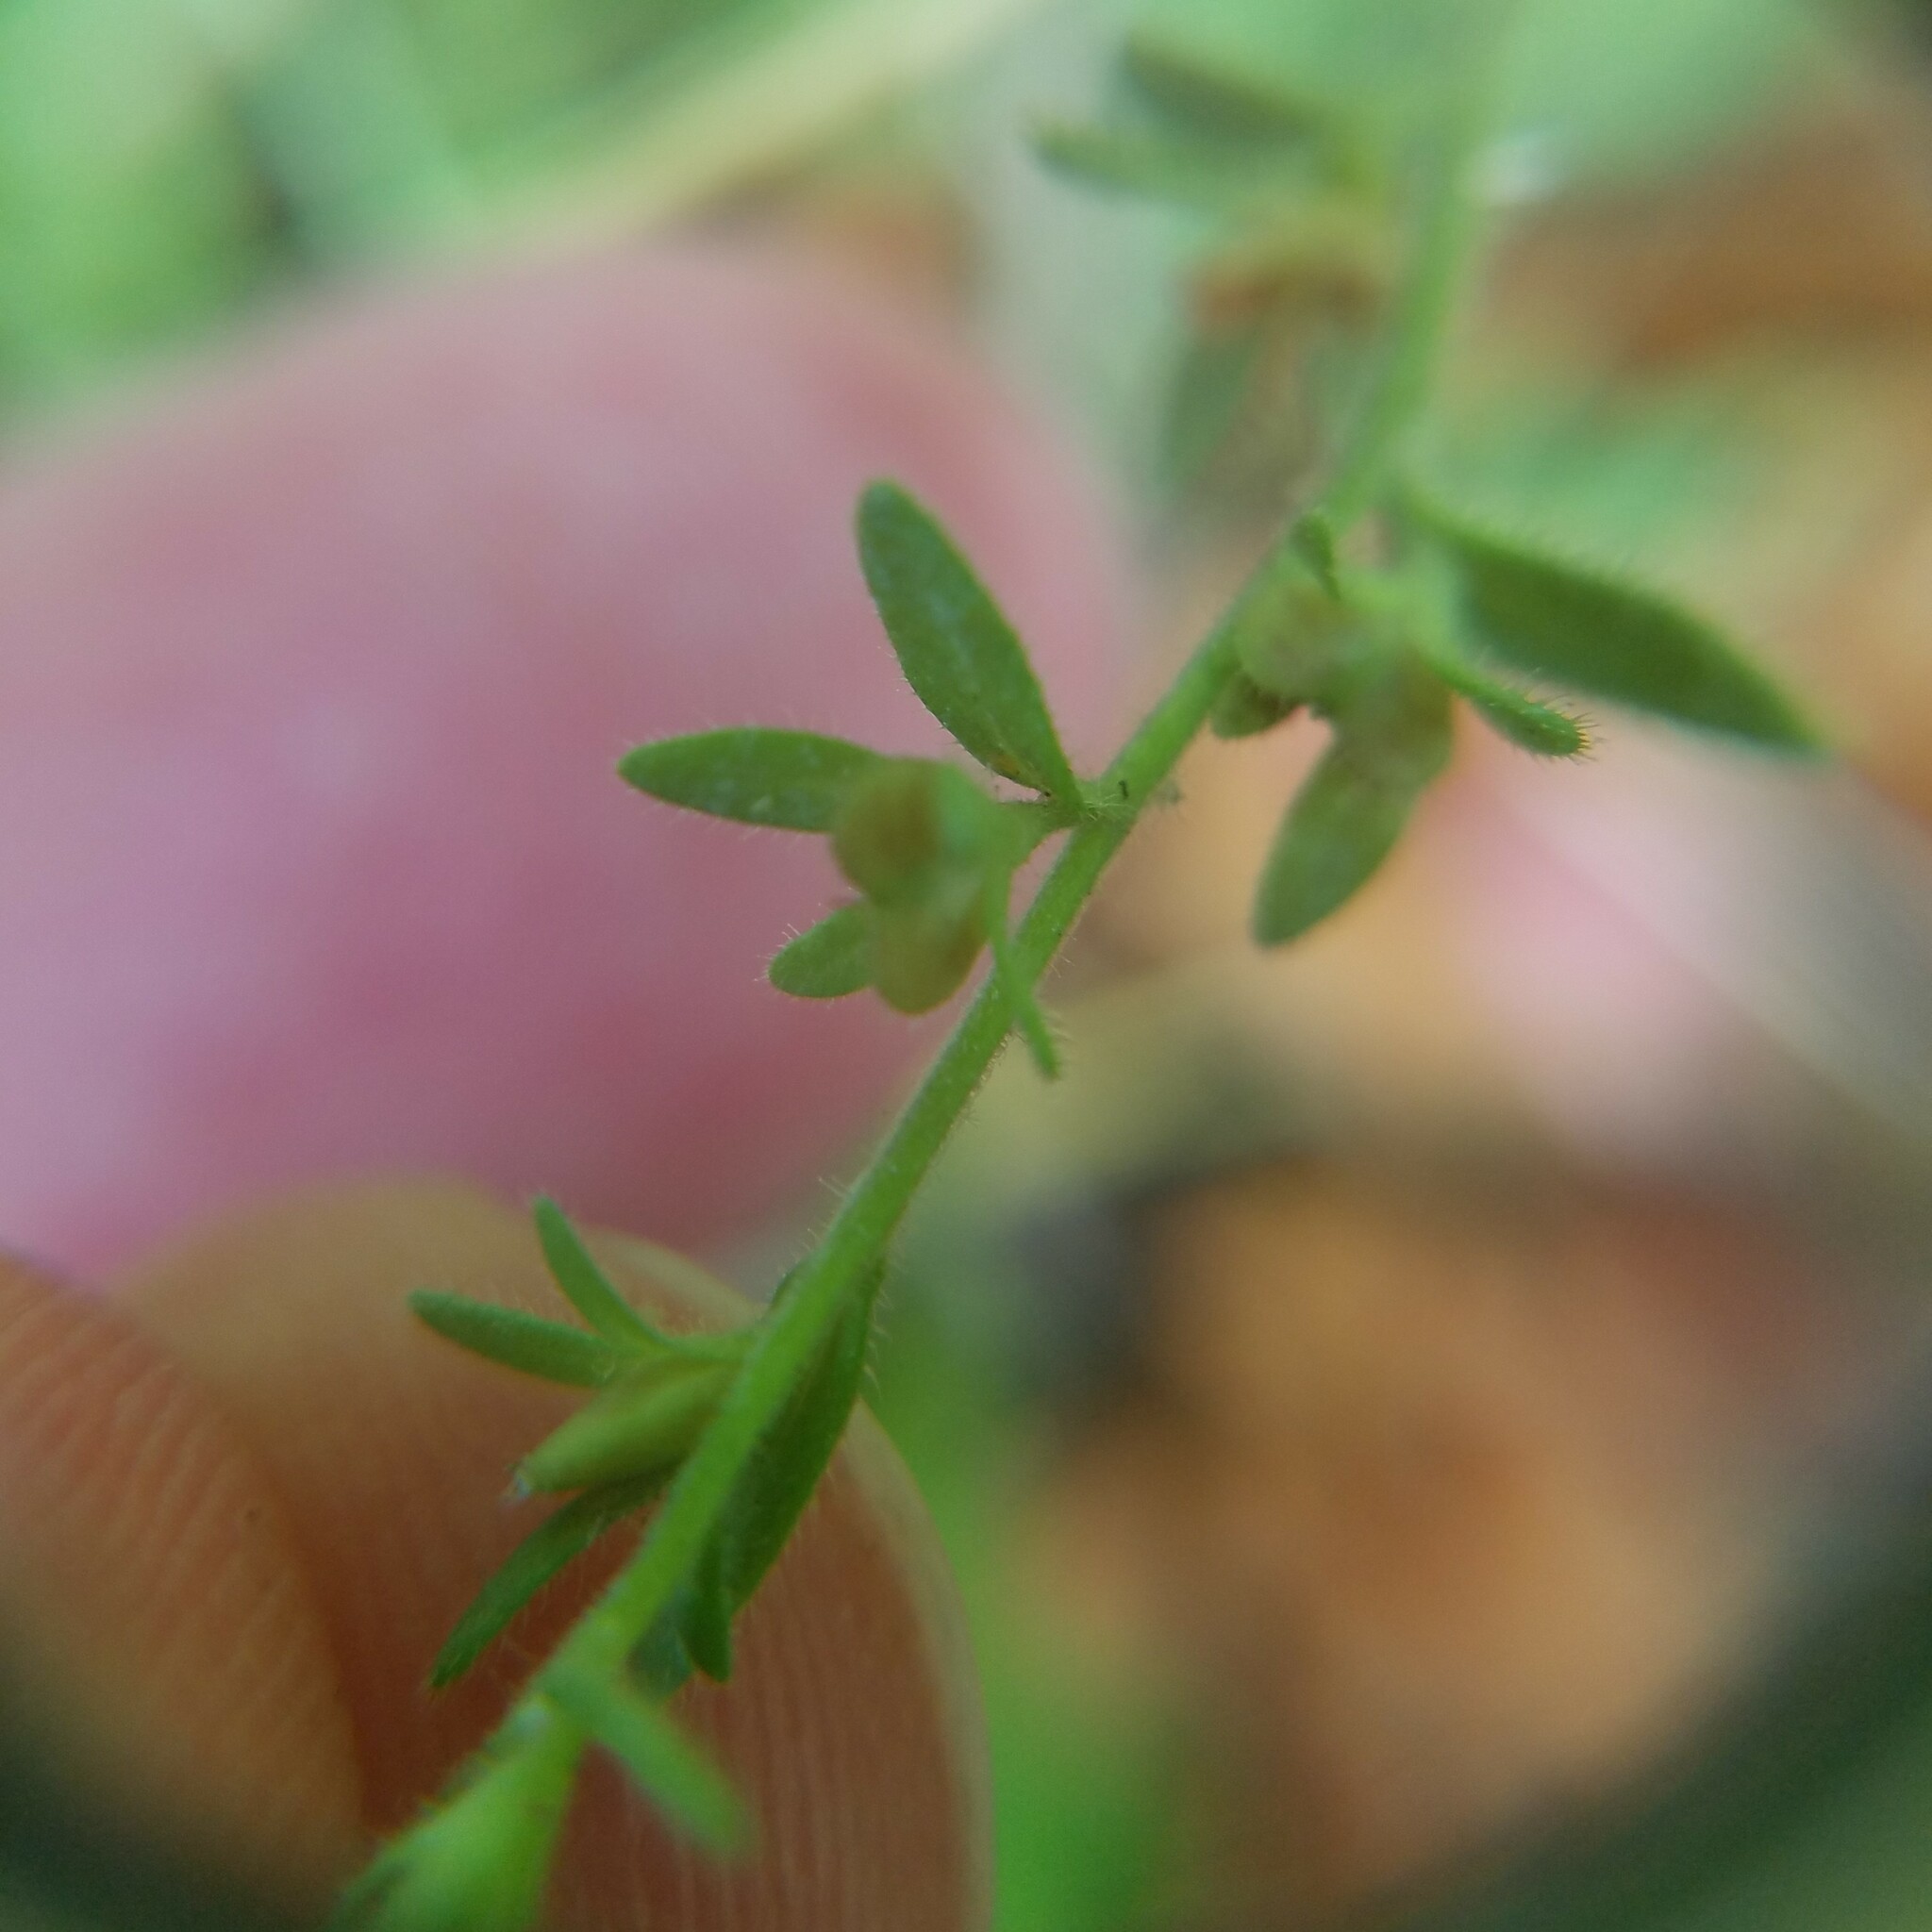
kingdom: Plantae
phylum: Tracheophyta
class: Magnoliopsida
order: Lamiales
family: Plantaginaceae
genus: Veronica
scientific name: Veronica arvensis
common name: Corn speedwell
